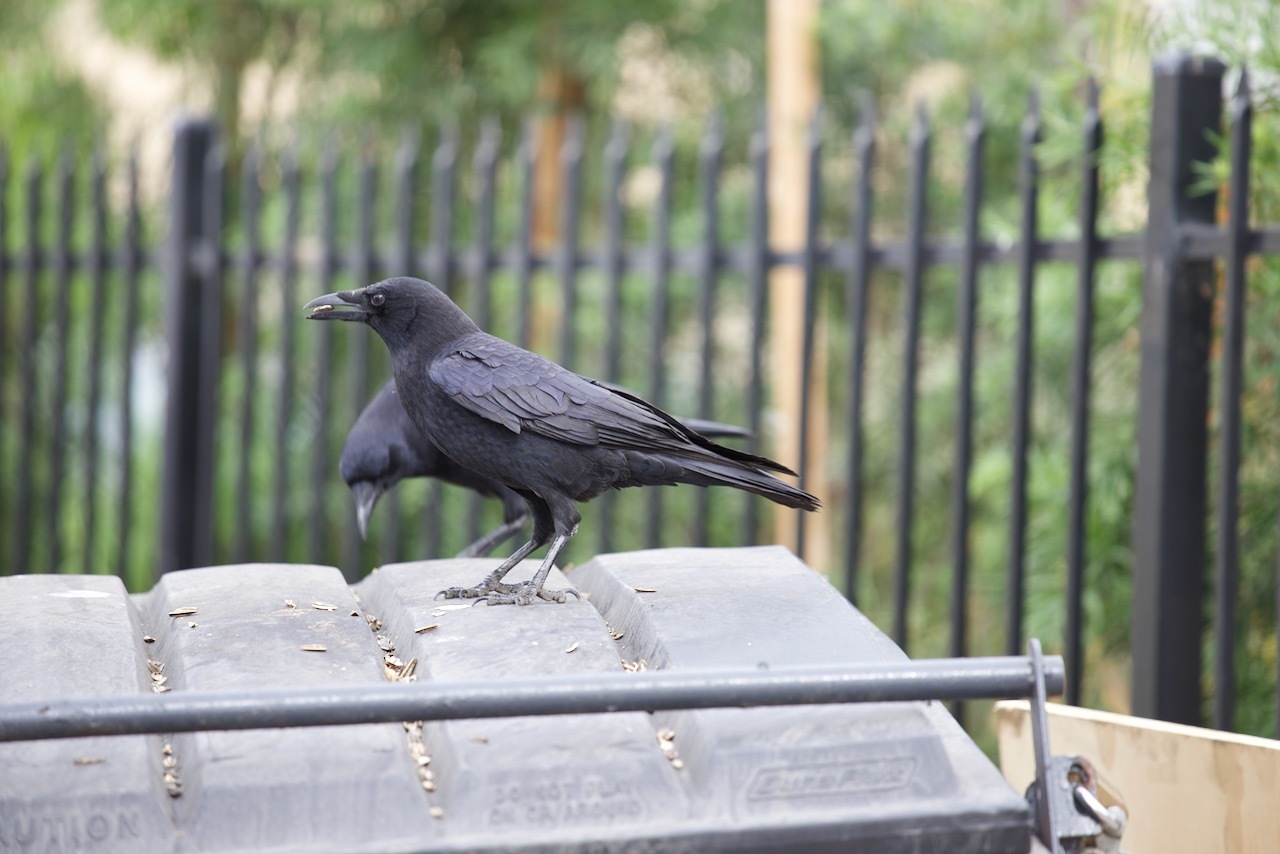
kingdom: Animalia
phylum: Chordata
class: Aves
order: Passeriformes
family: Corvidae
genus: Corvus
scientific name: Corvus brachyrhynchos
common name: American crow
